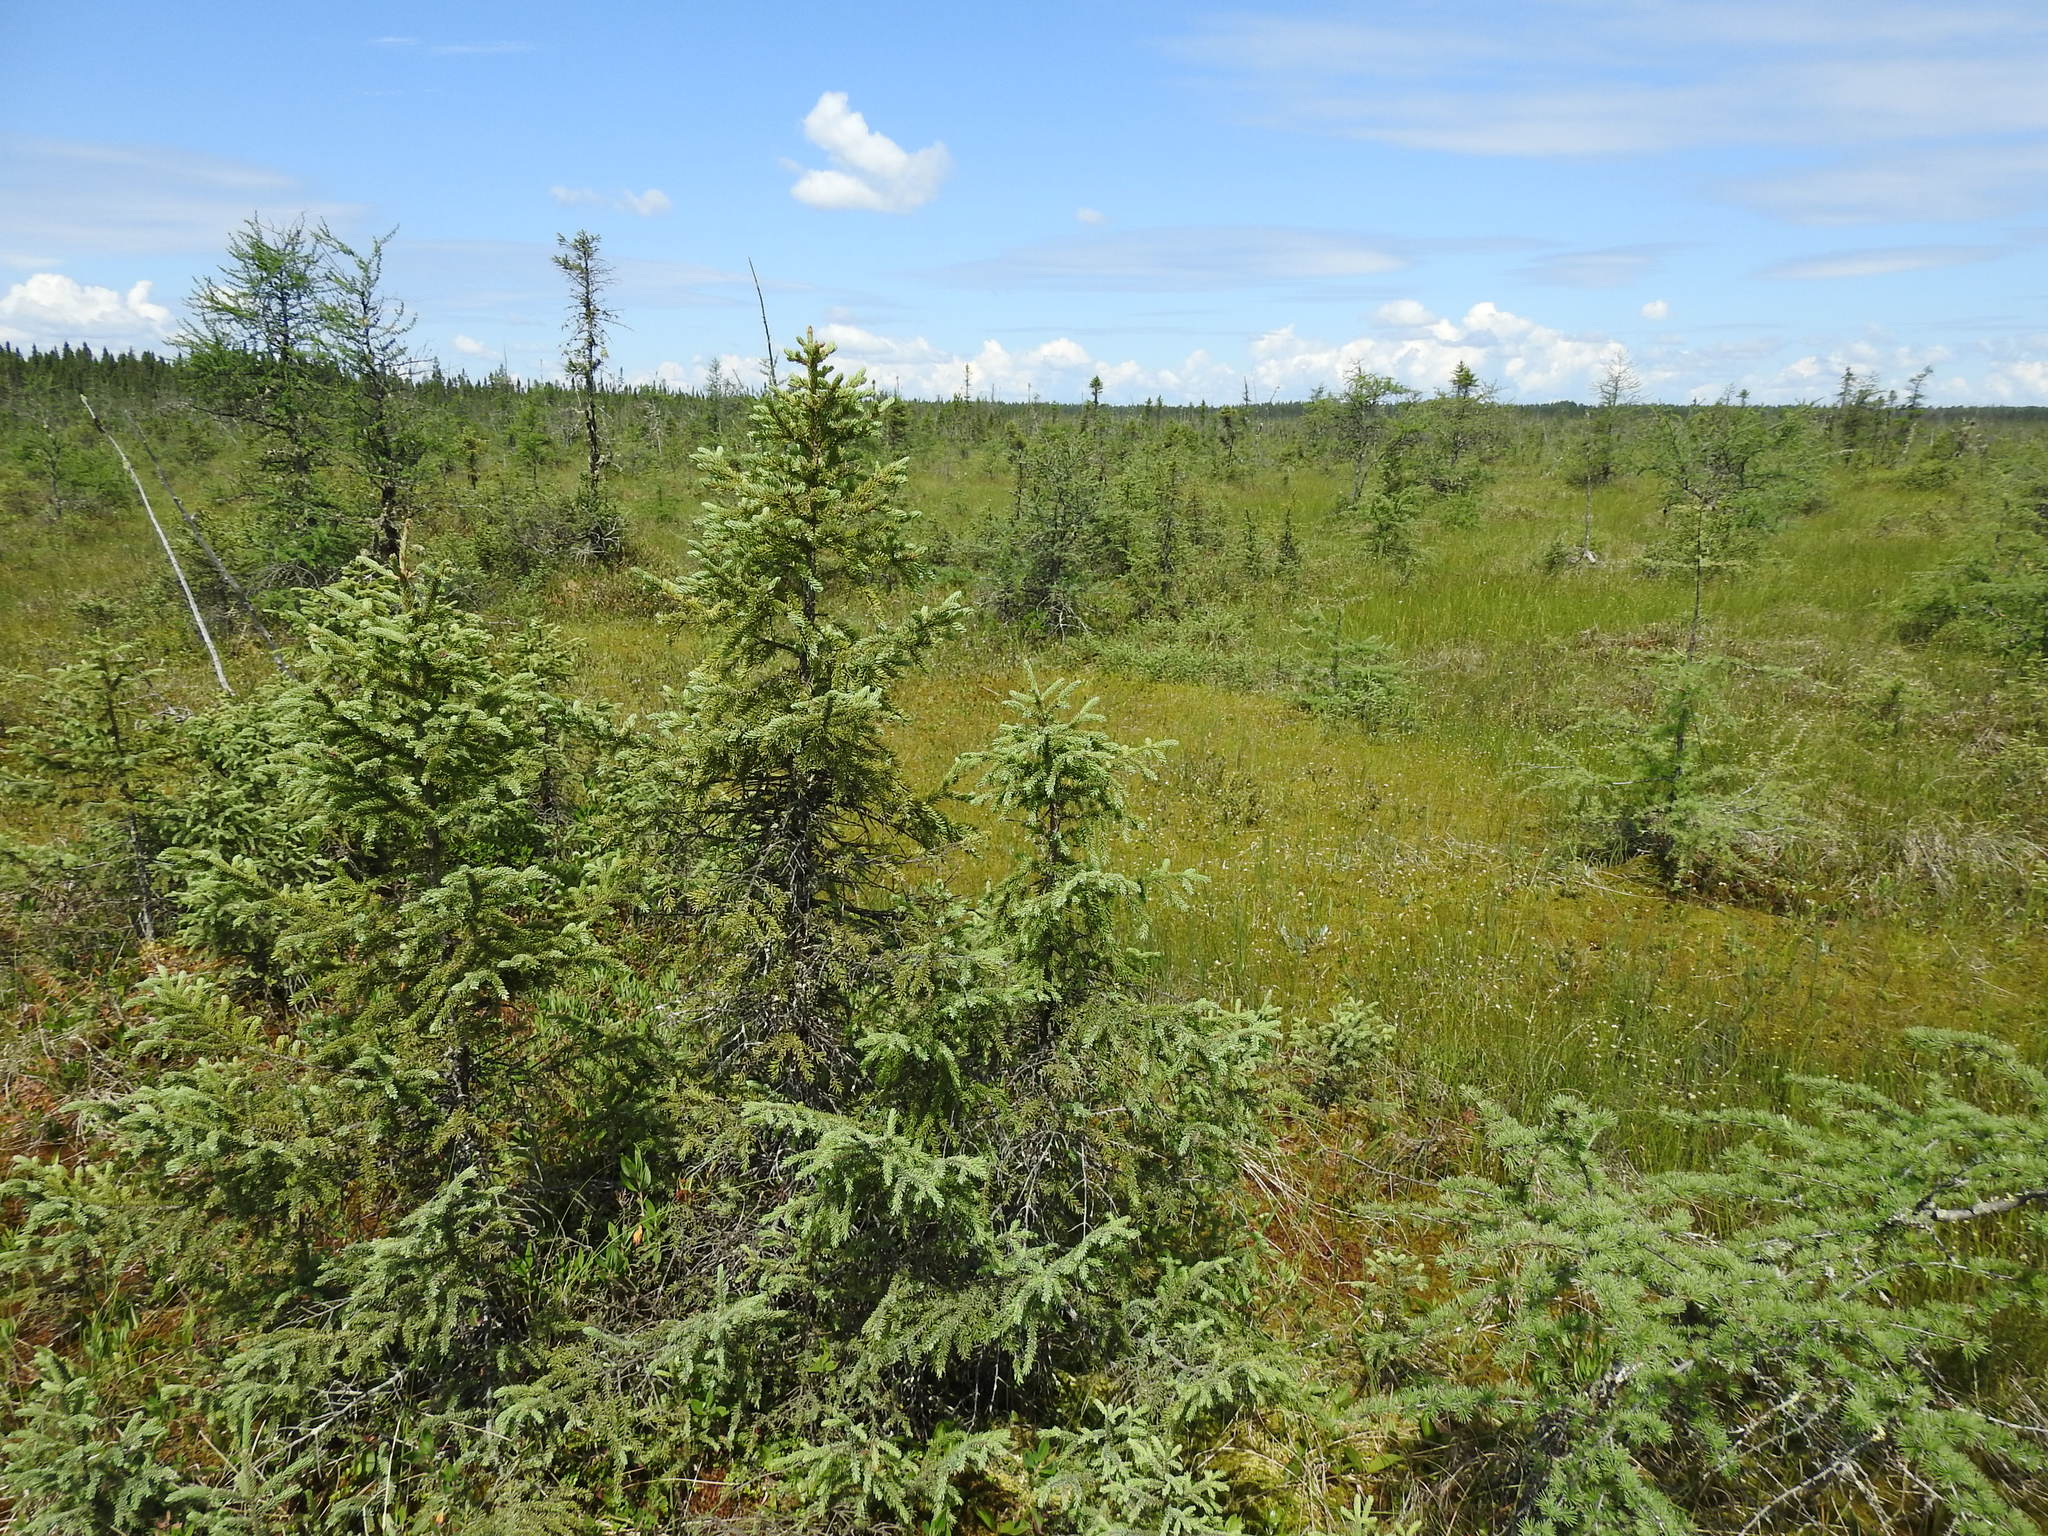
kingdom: Plantae
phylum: Tracheophyta
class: Pinopsida
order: Pinales
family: Pinaceae
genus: Picea
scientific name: Picea mariana
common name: Black spruce
